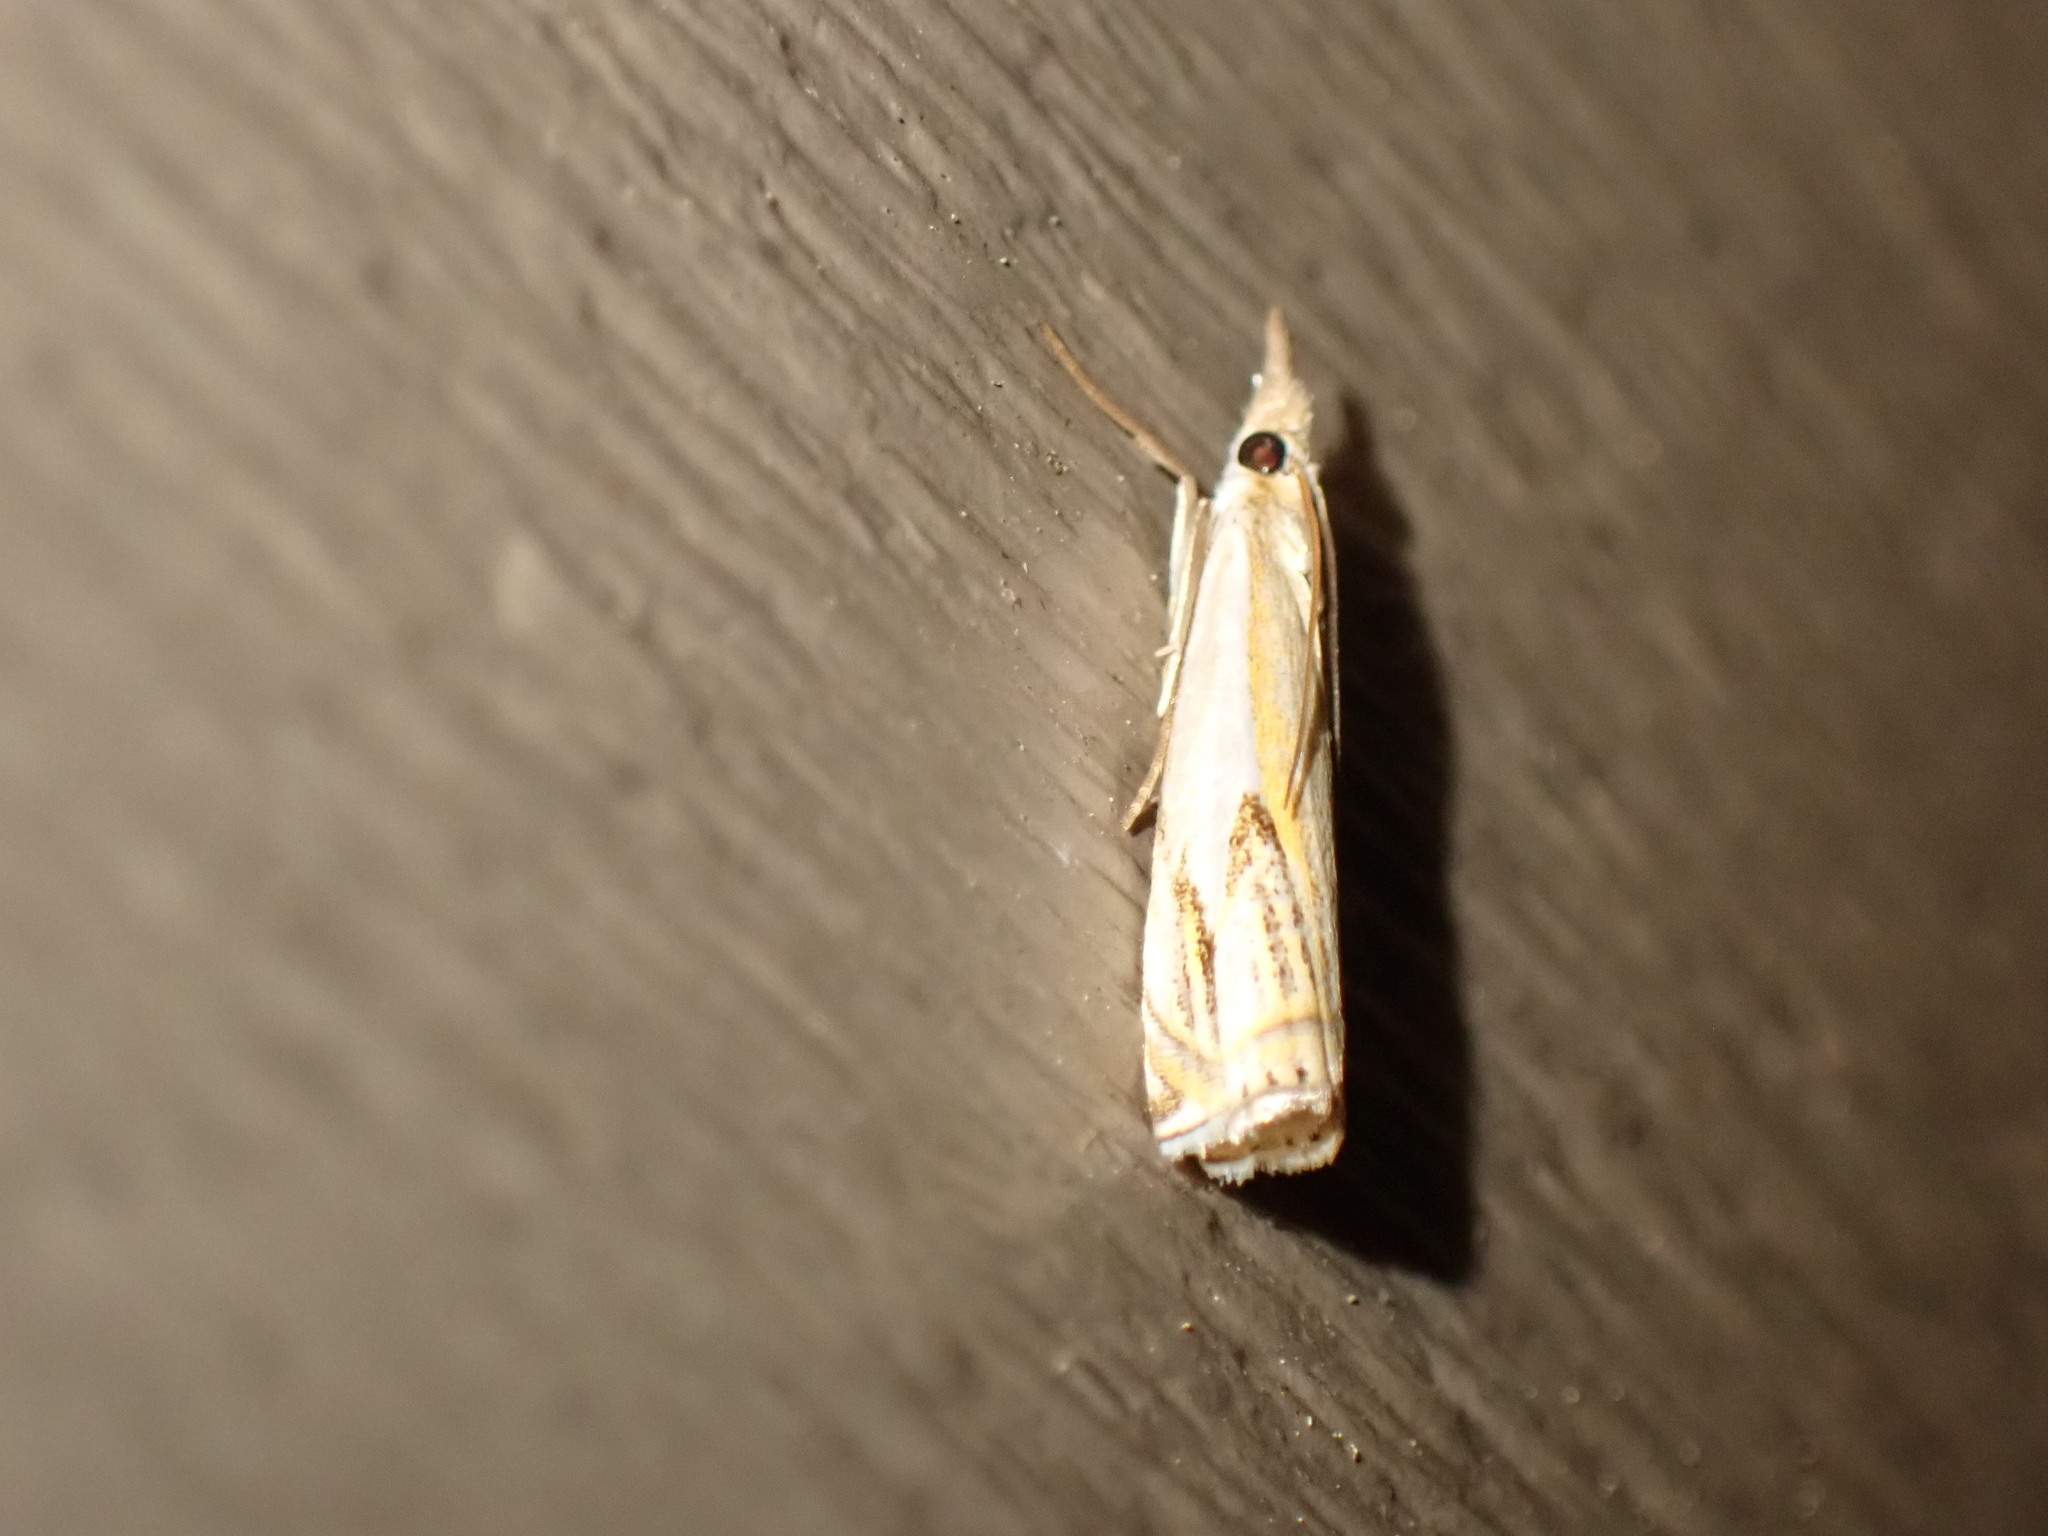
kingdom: Animalia
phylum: Arthropoda
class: Insecta
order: Lepidoptera
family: Crambidae
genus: Crambus
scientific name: Crambus agitatellus
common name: Double-banded grass-veneer
